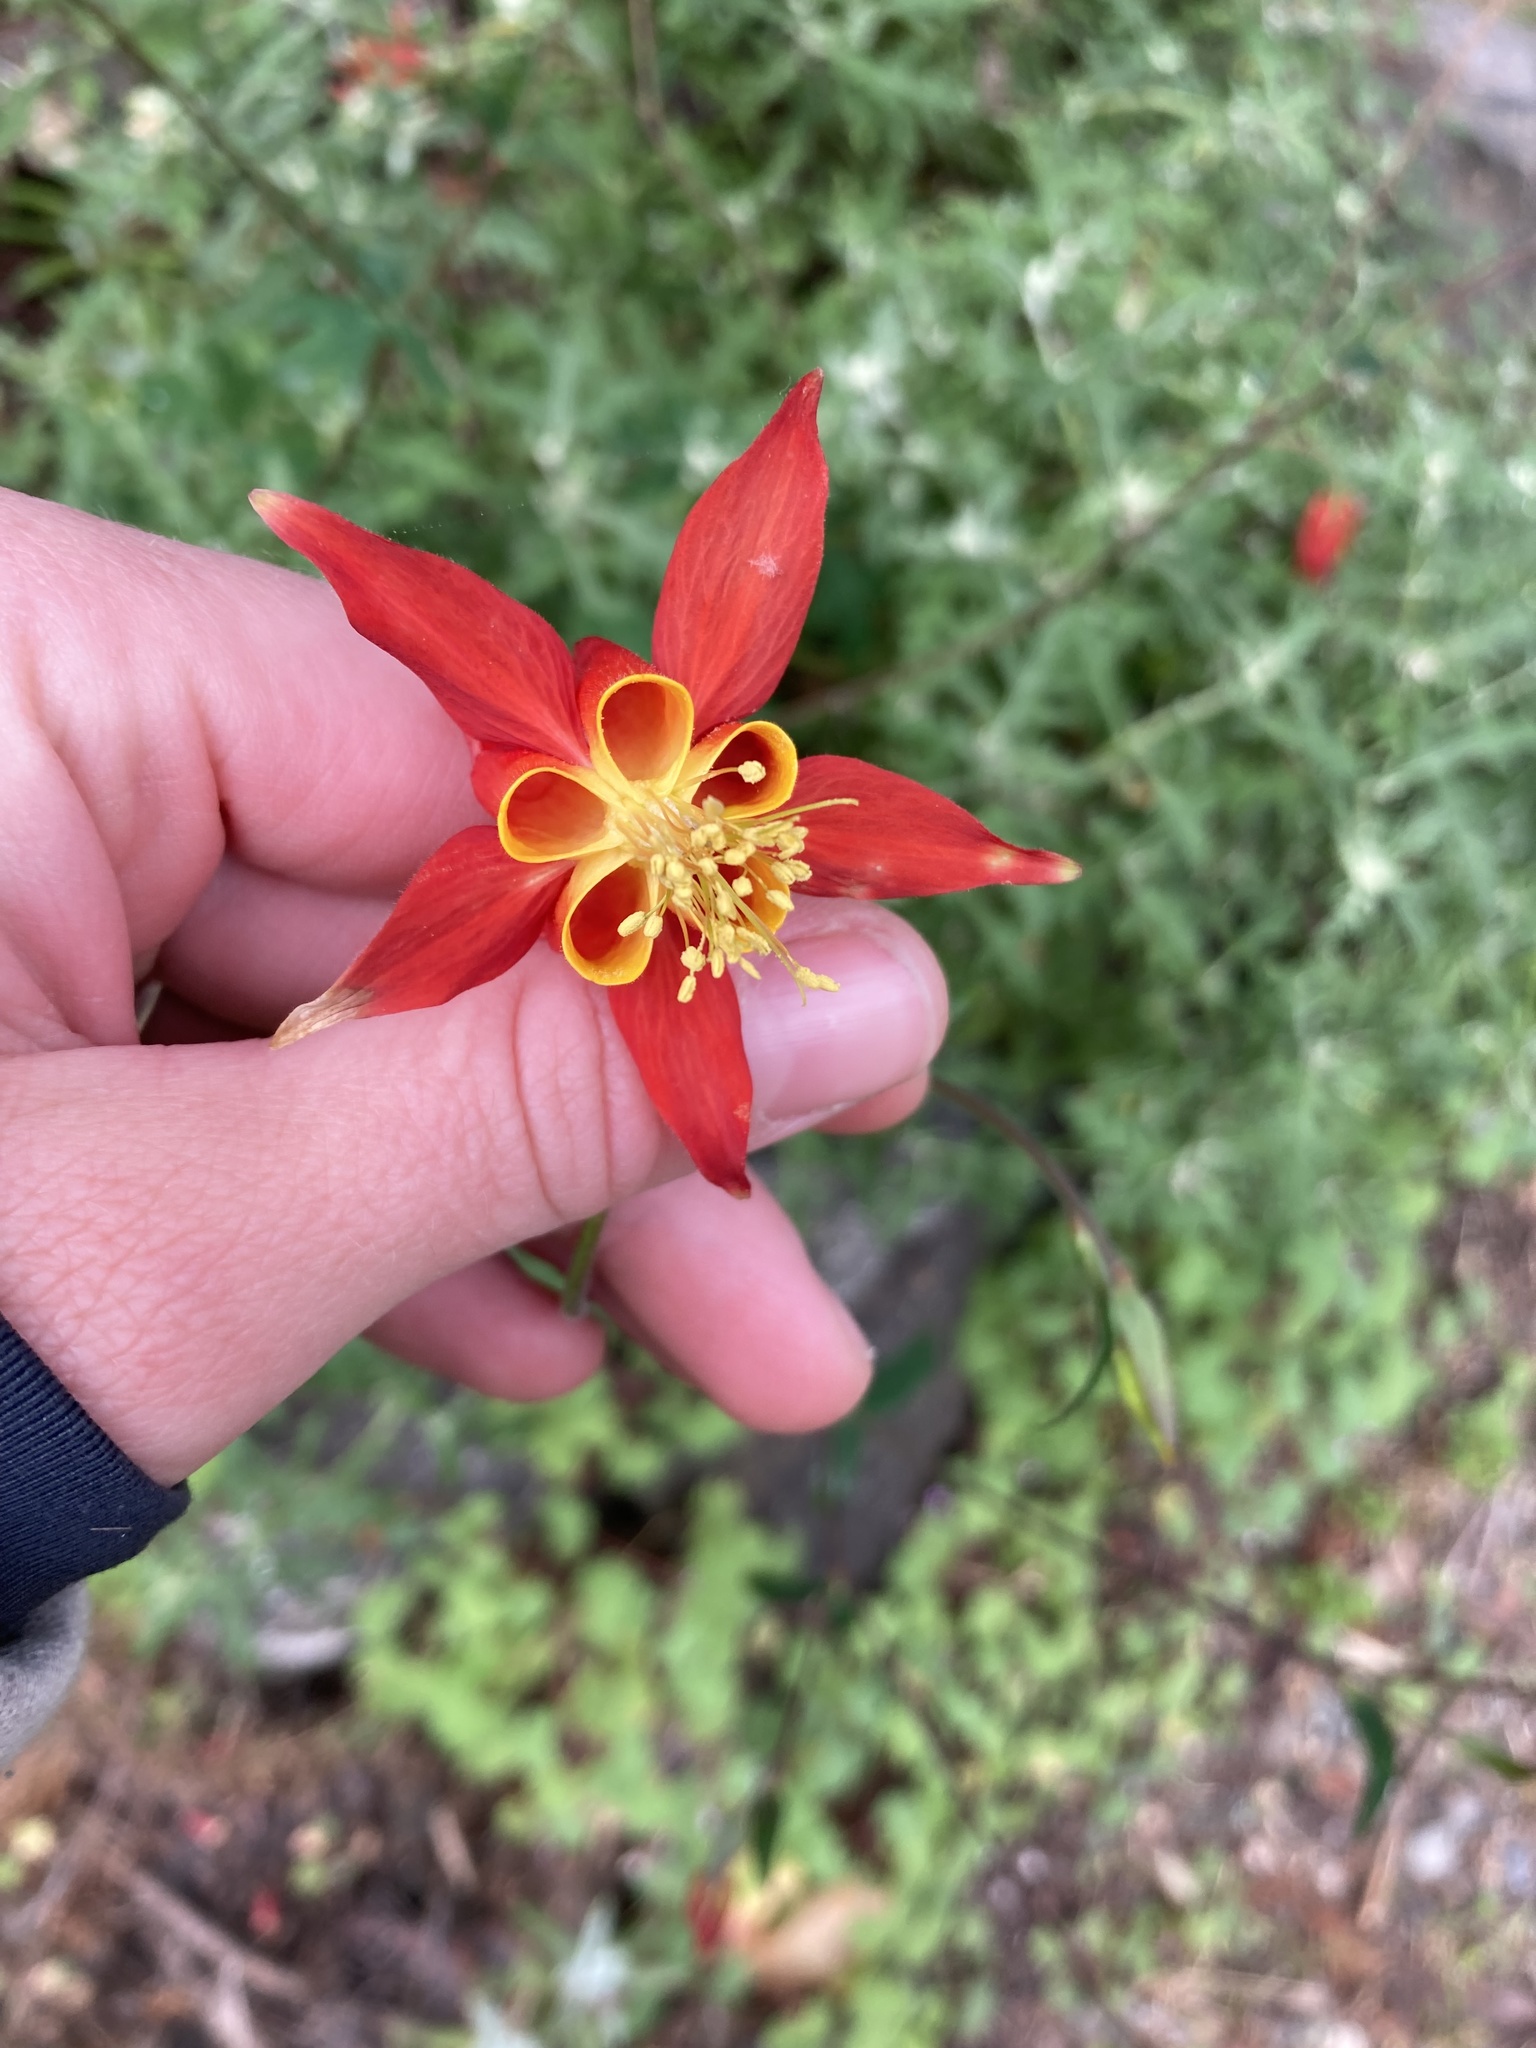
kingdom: Plantae
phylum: Tracheophyta
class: Magnoliopsida
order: Ranunculales
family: Ranunculaceae
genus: Aquilegia
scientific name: Aquilegia formosa
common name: Sitka columbine
